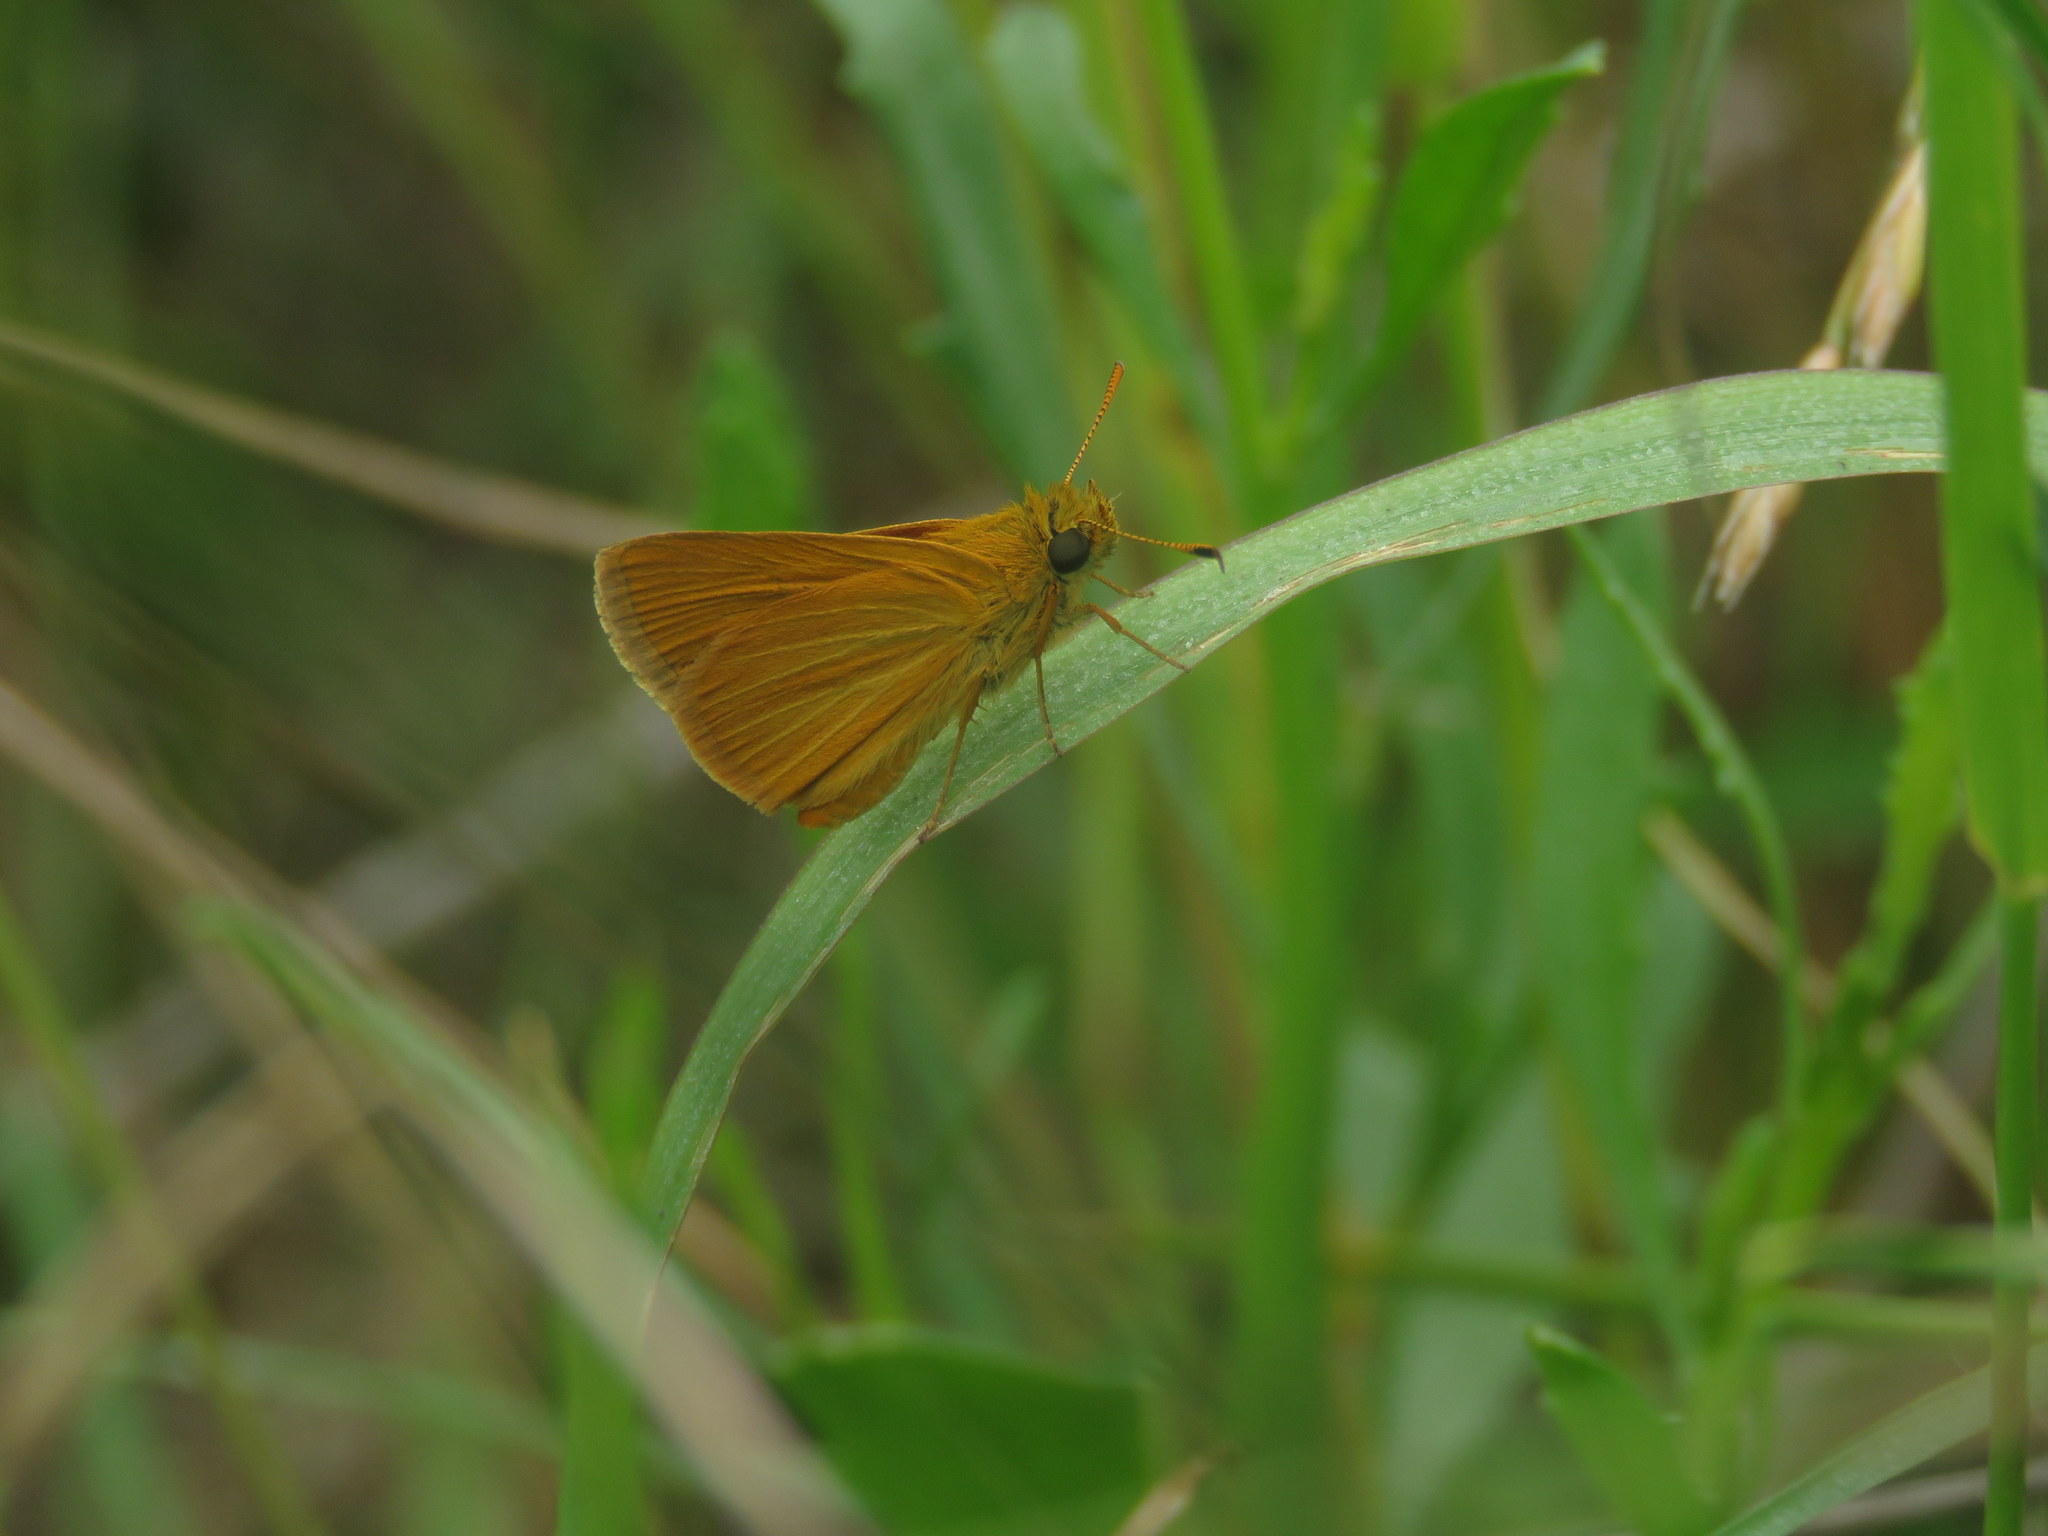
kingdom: Animalia
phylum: Arthropoda
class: Insecta
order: Lepidoptera
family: Hesperiidae
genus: Corticea
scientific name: Corticea immocerinus
